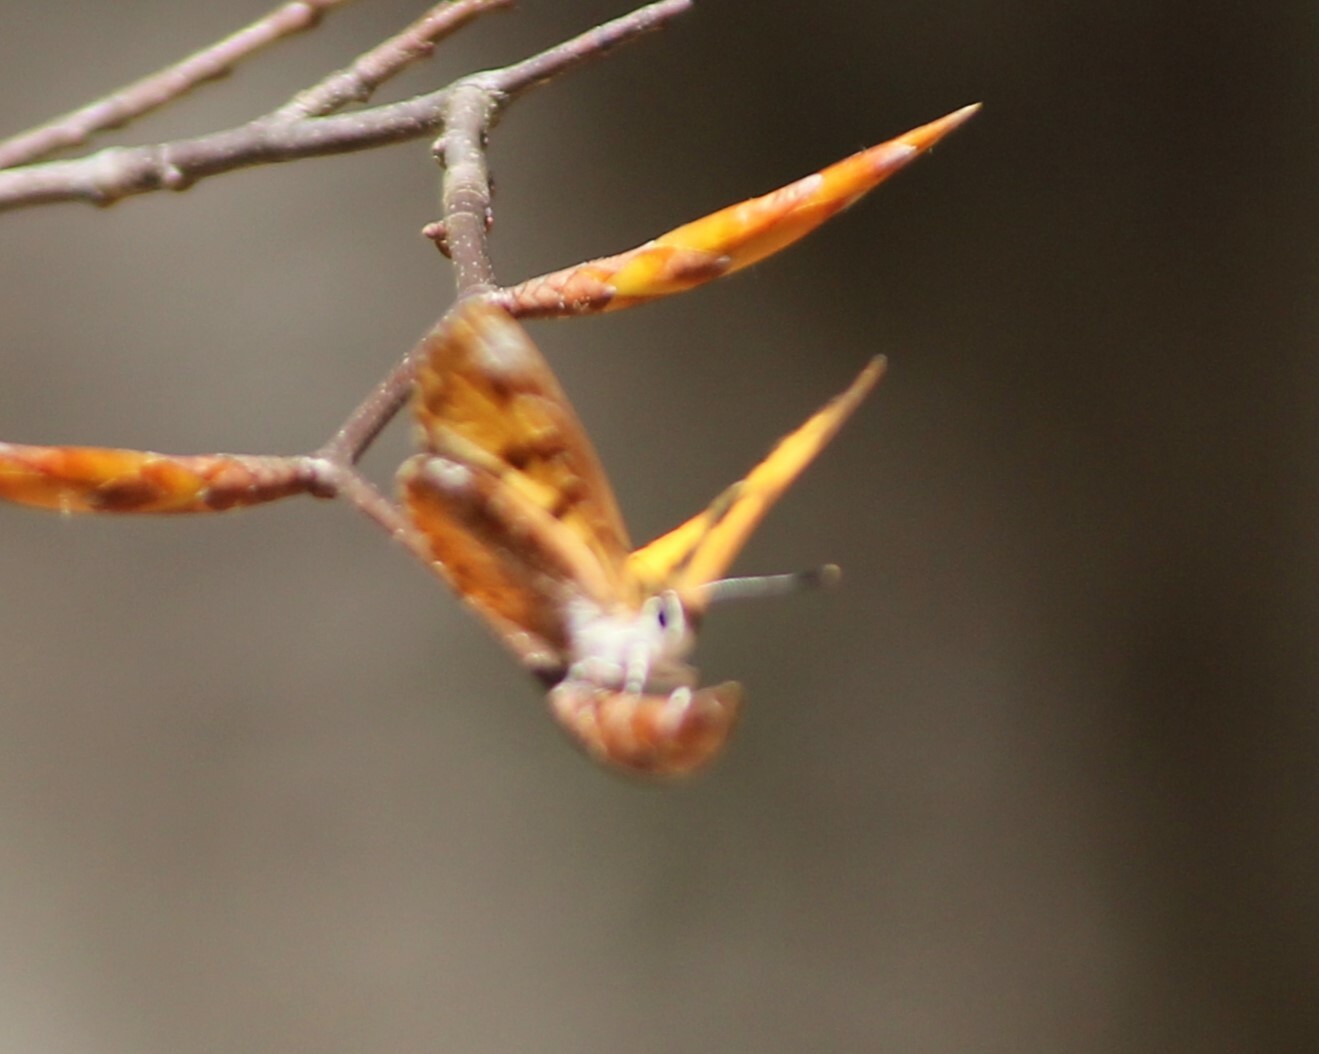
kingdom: Animalia
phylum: Arthropoda
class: Insecta
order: Lepidoptera
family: Lycaenidae
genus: Feniseca
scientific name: Feniseca tarquinius
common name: Harvester
